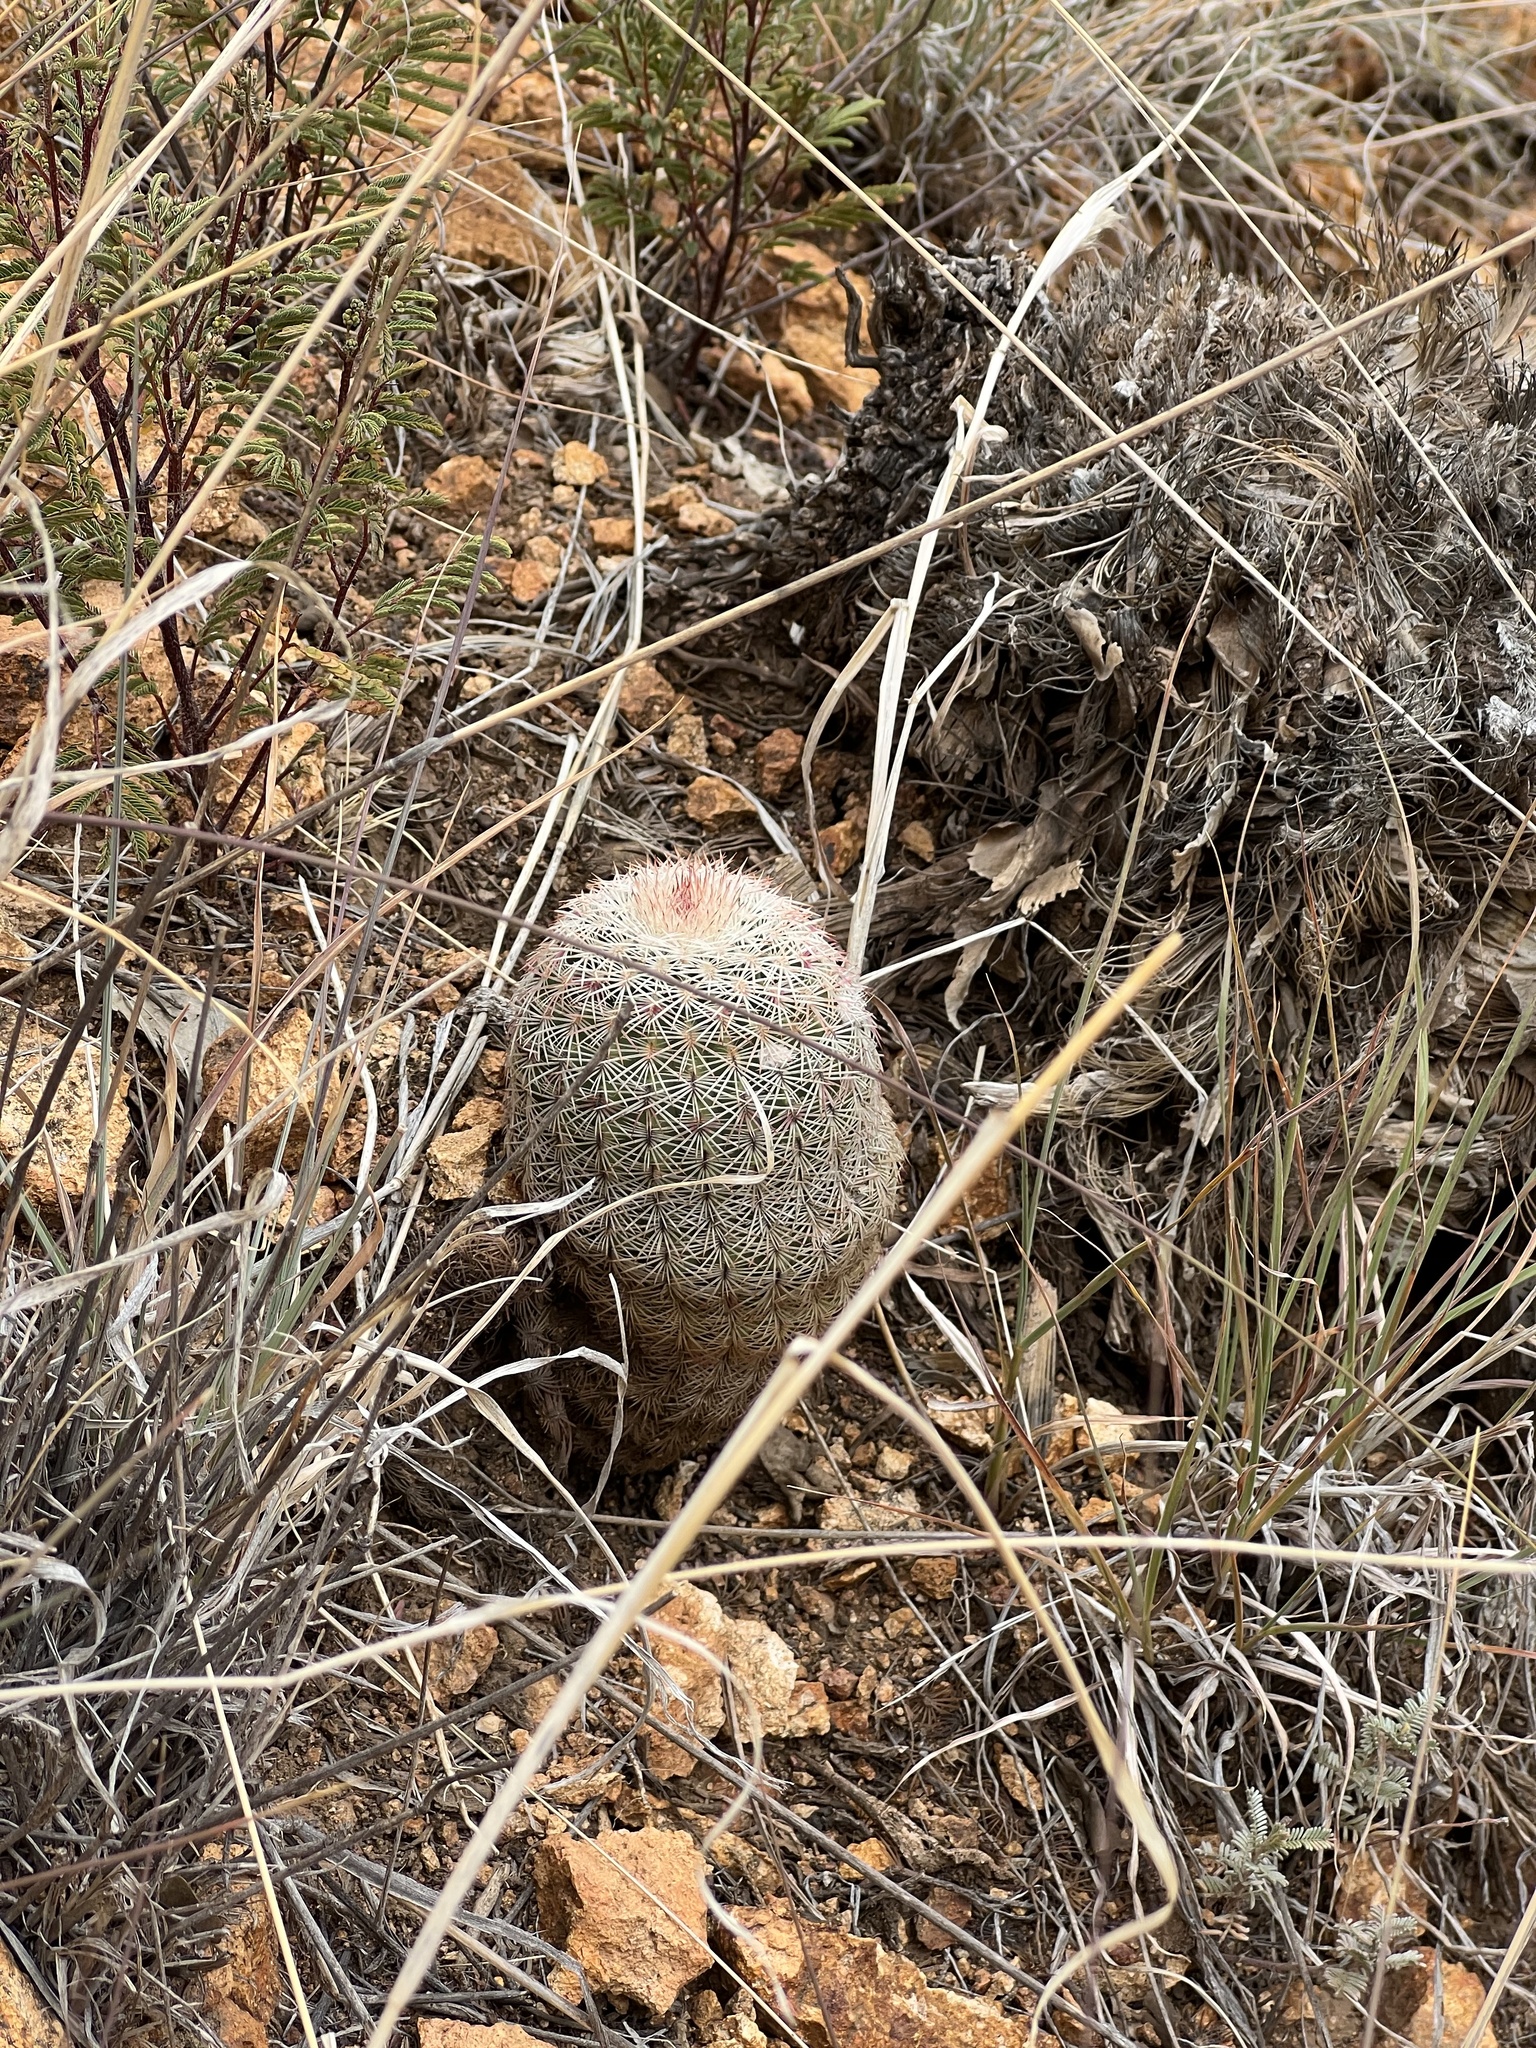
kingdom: Plantae
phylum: Tracheophyta
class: Magnoliopsida
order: Caryophyllales
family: Cactaceae
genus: Echinocereus
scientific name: Echinocereus rigidissimus
